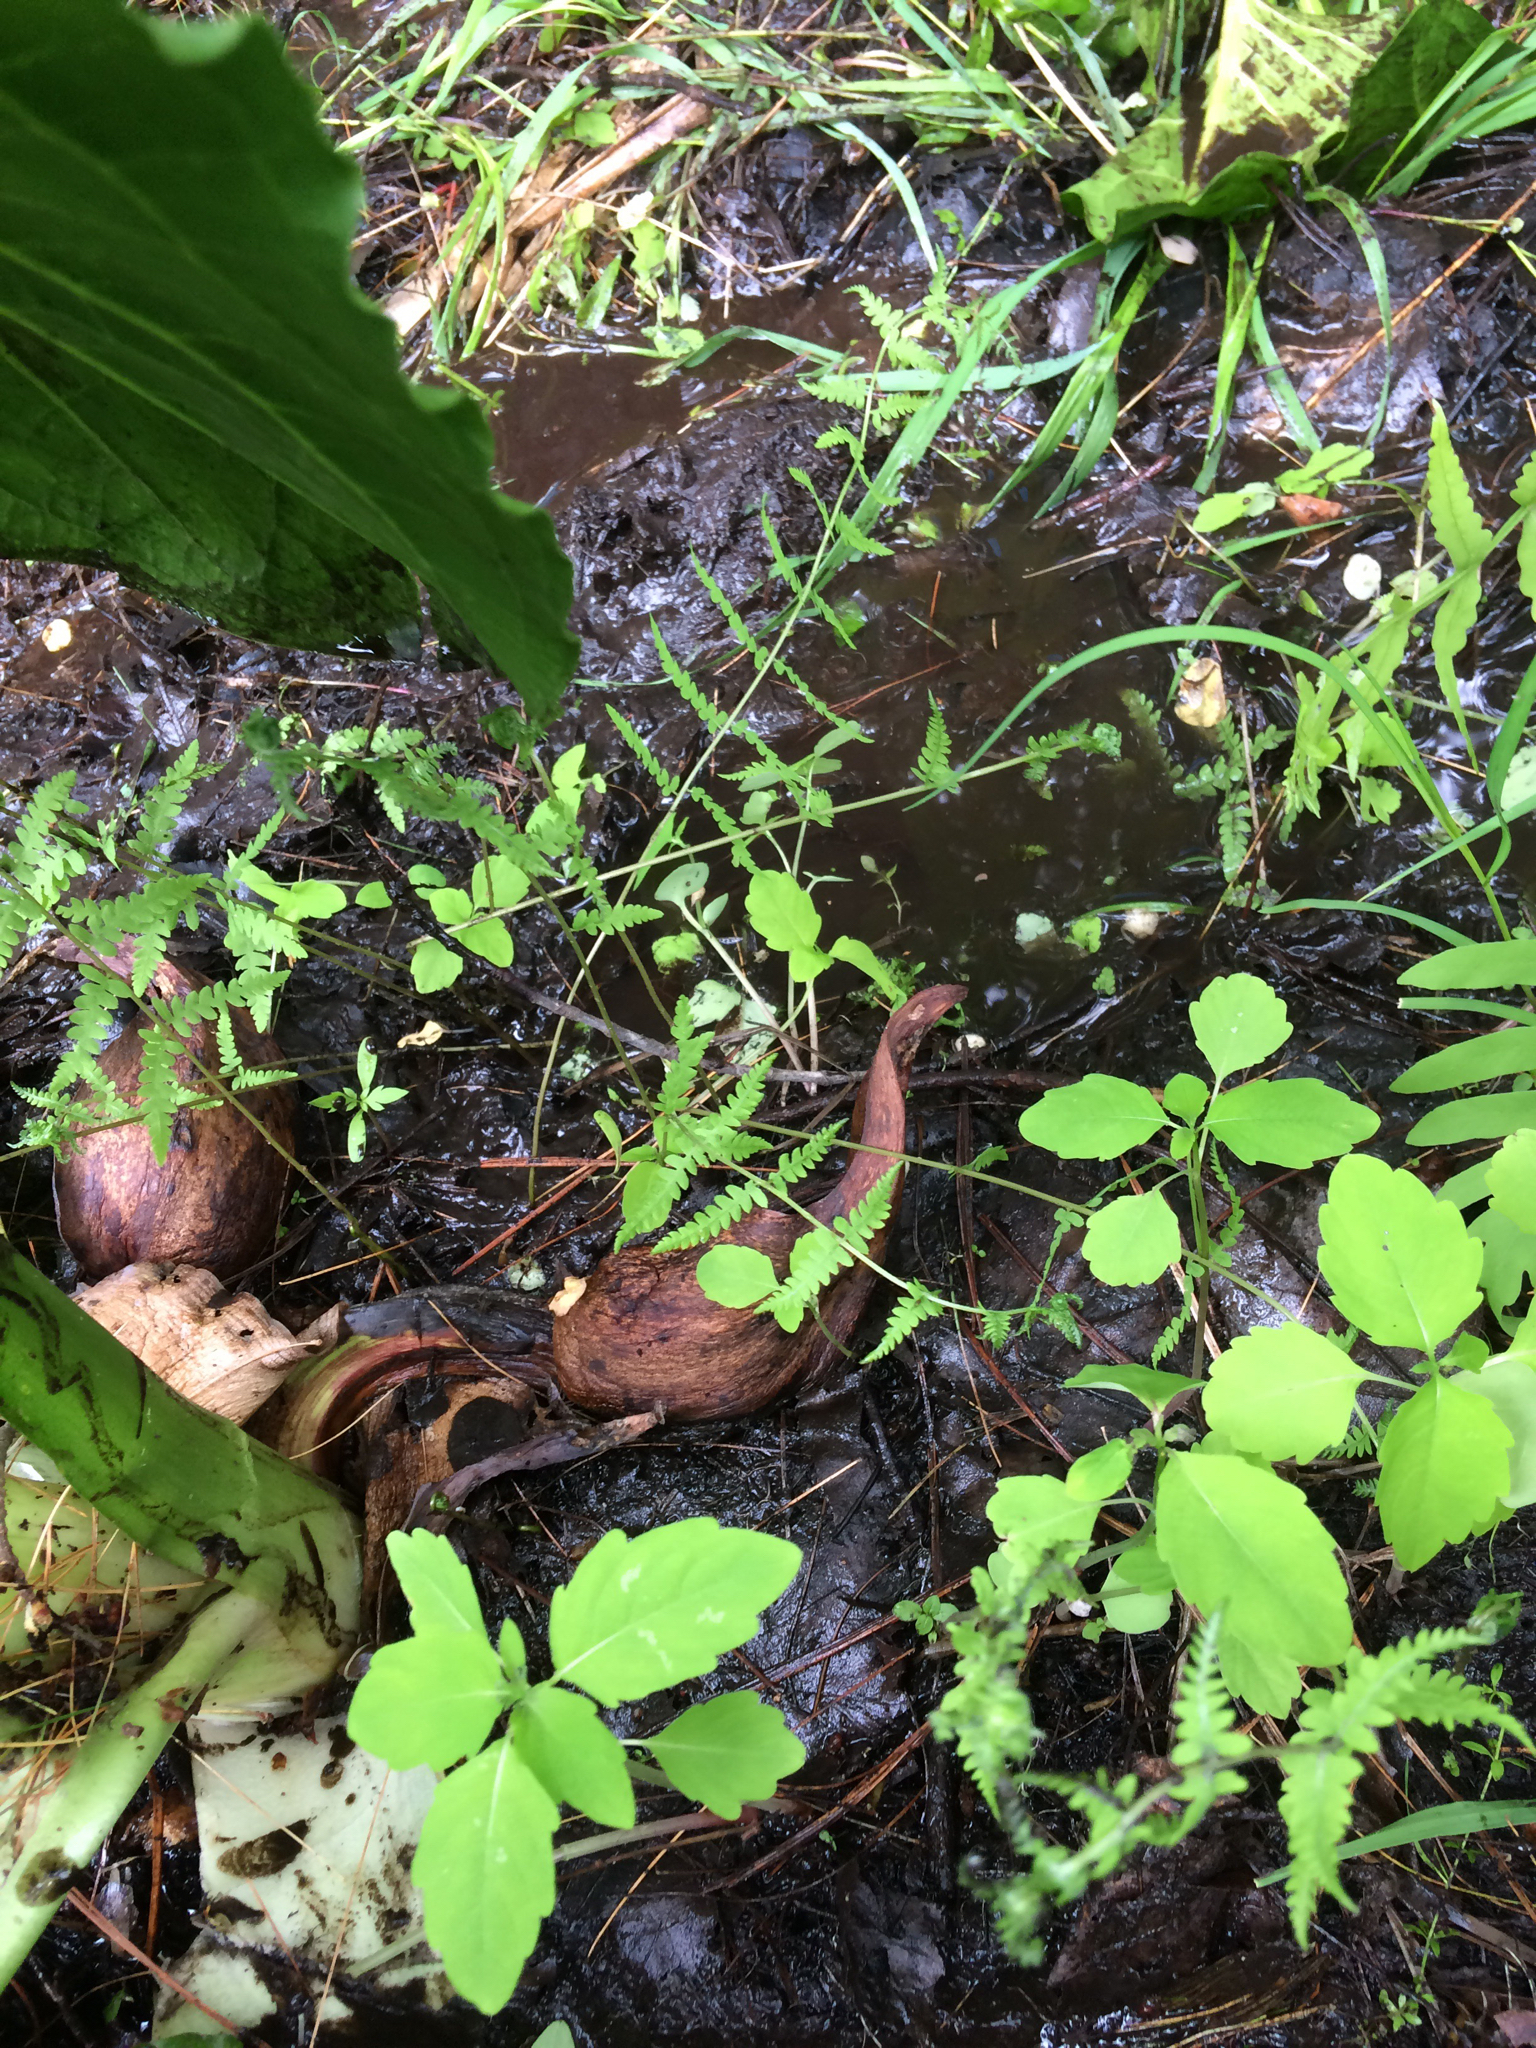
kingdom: Plantae
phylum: Tracheophyta
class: Polypodiopsida
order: Polypodiales
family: Thelypteridaceae
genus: Thelypteris
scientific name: Thelypteris palustris
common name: Marsh fern
